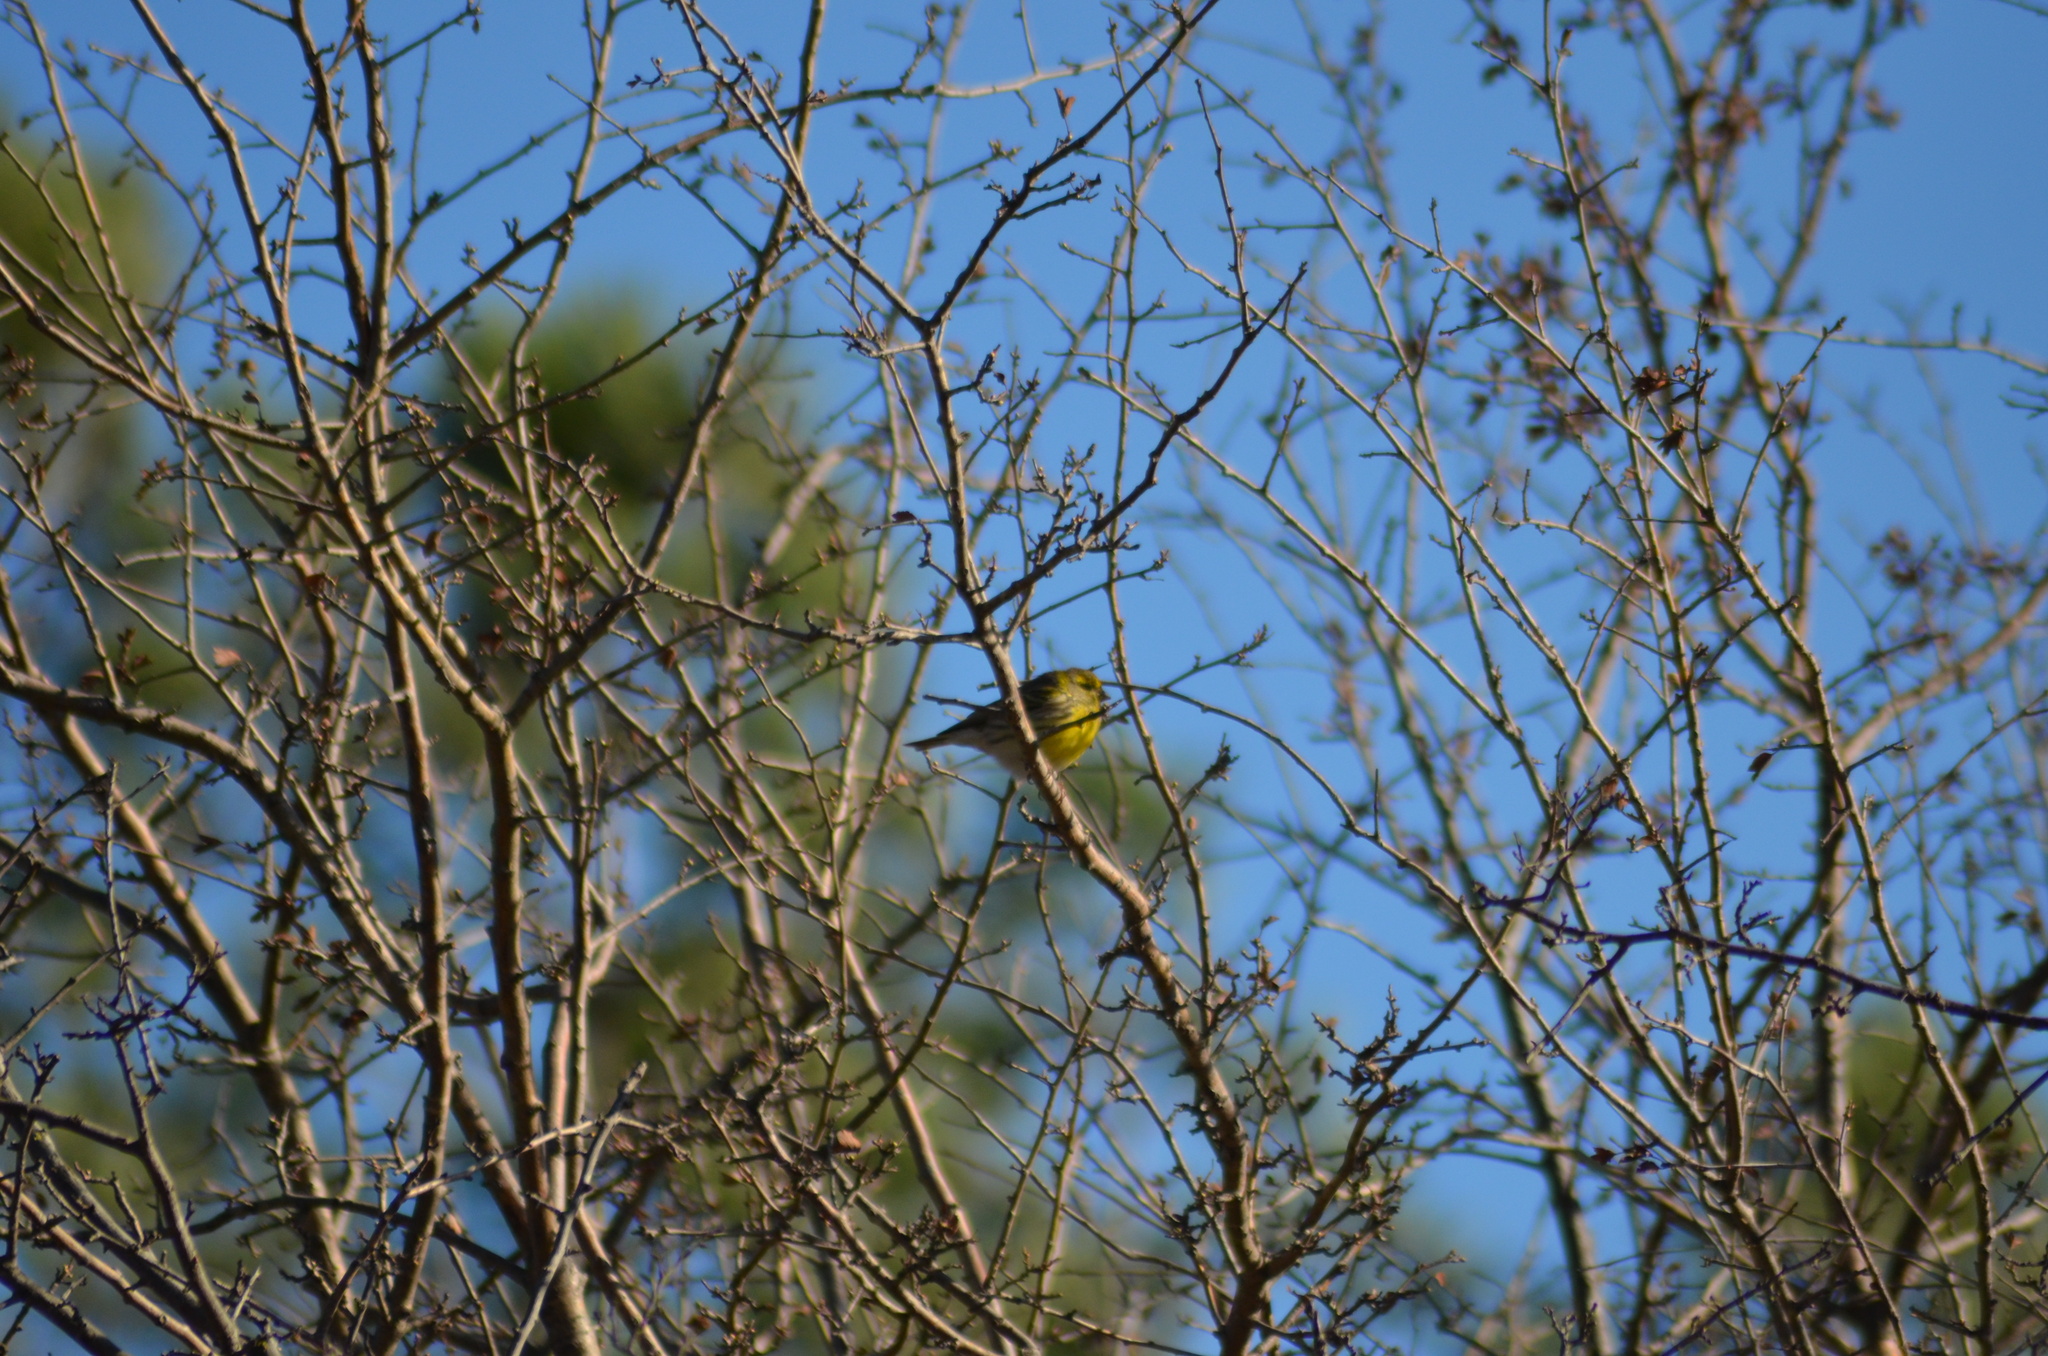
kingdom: Animalia
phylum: Chordata
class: Aves
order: Passeriformes
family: Fringillidae
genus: Serinus
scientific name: Serinus serinus
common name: European serin
